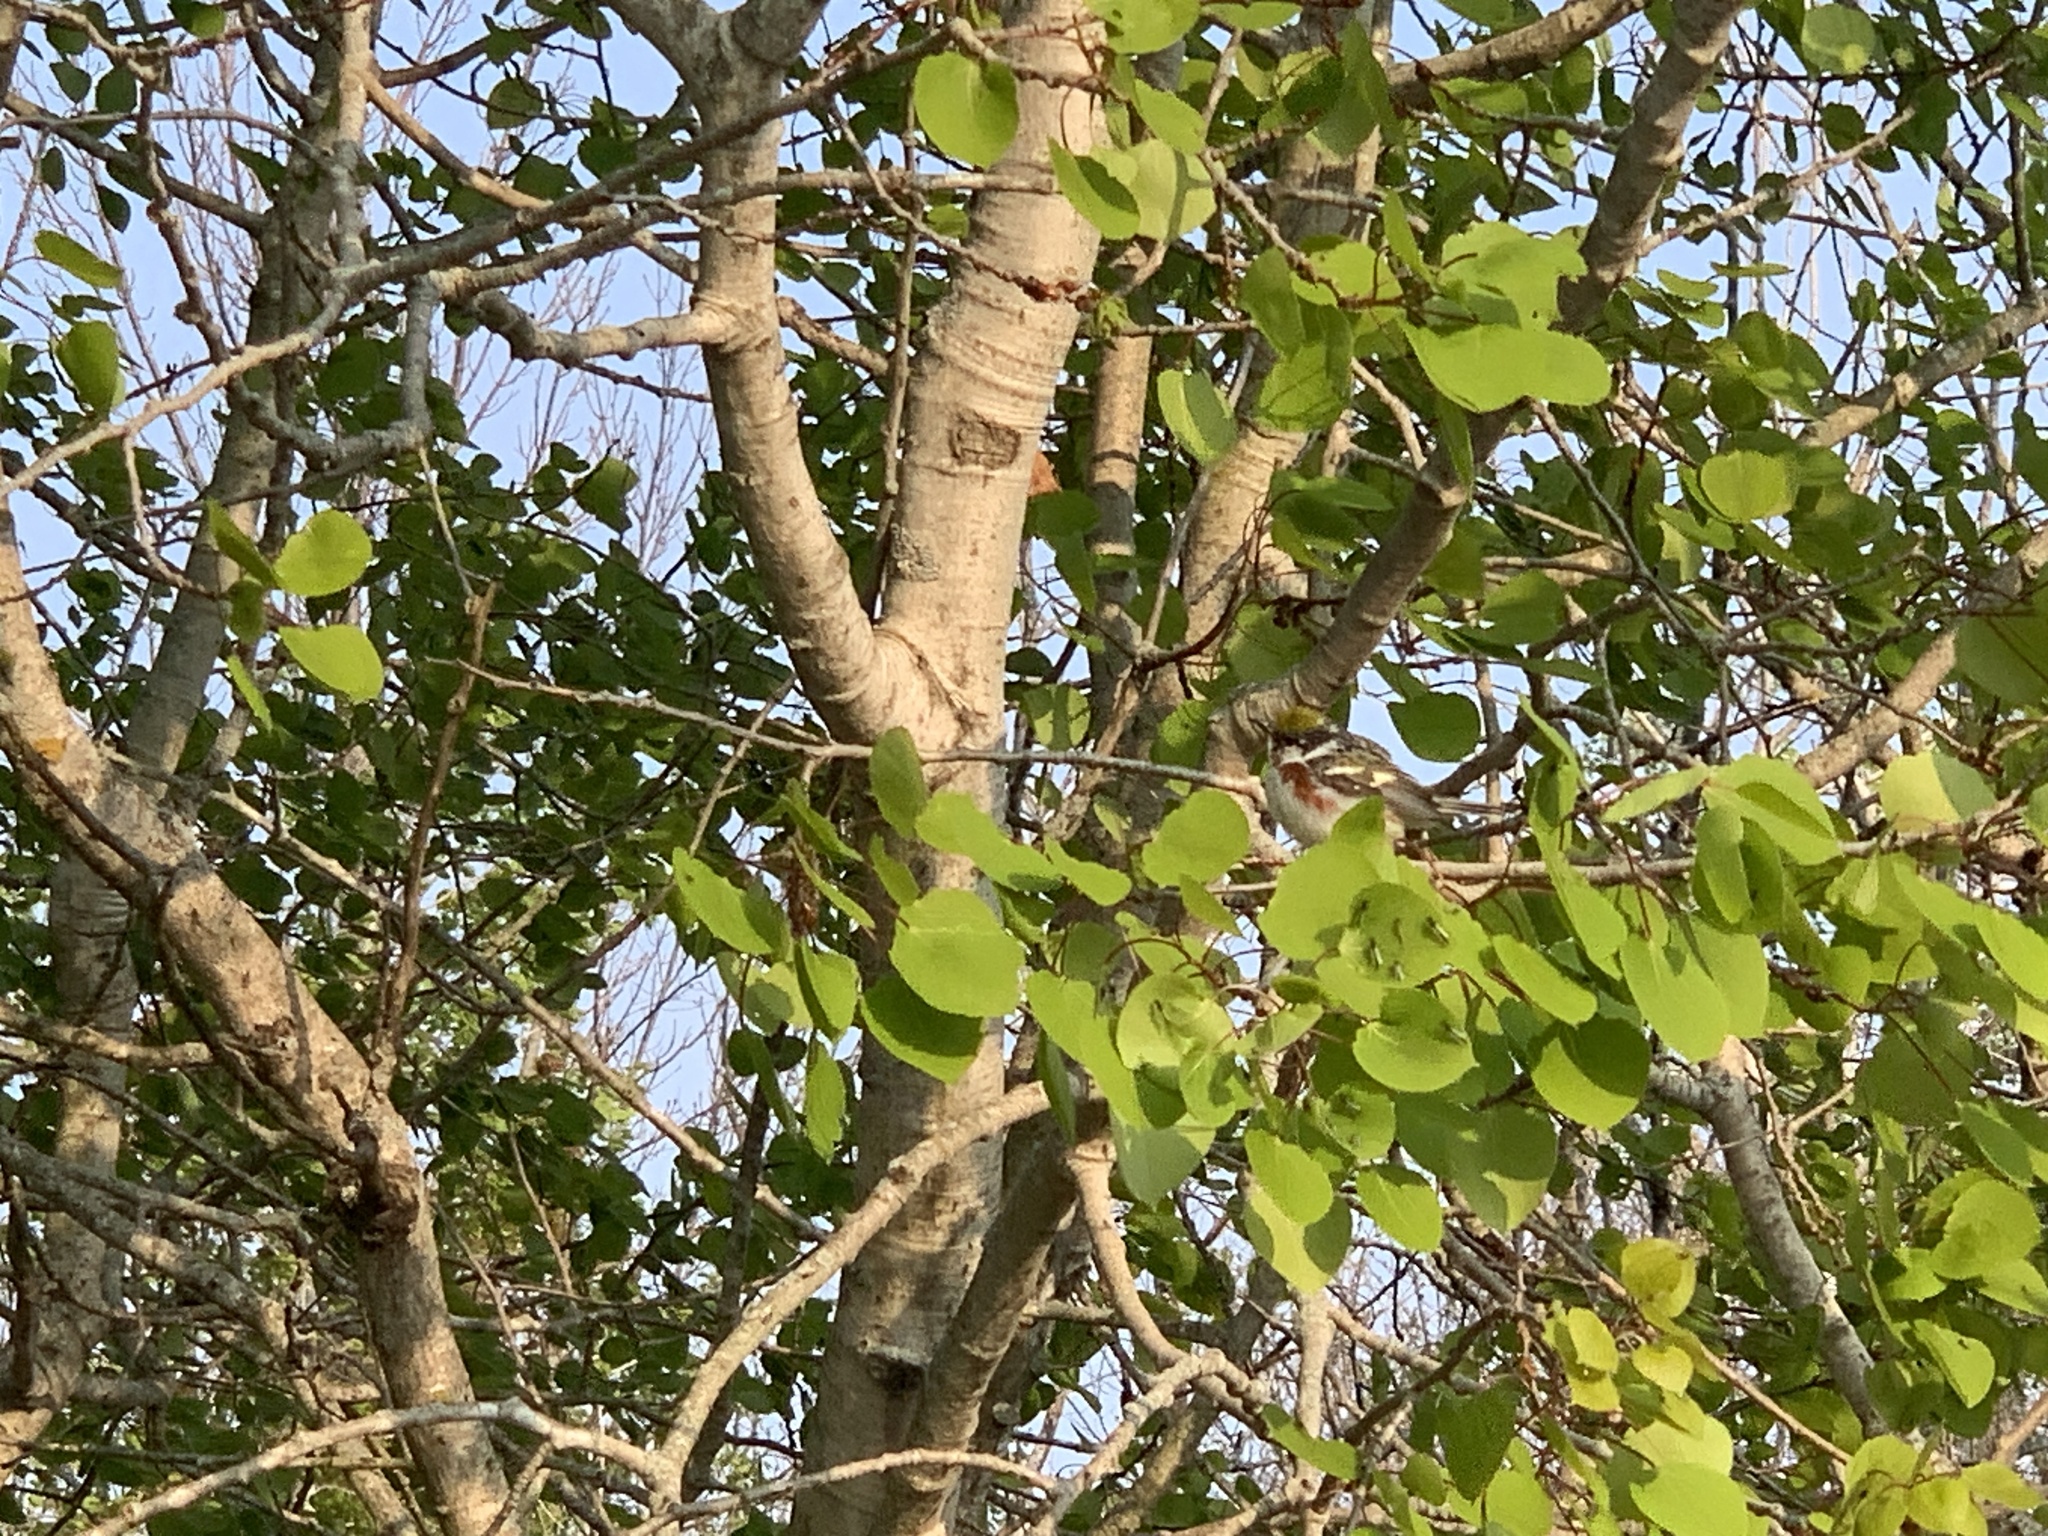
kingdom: Animalia
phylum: Chordata
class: Aves
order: Passeriformes
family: Parulidae
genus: Setophaga
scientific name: Setophaga pensylvanica
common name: Chestnut-sided warbler
